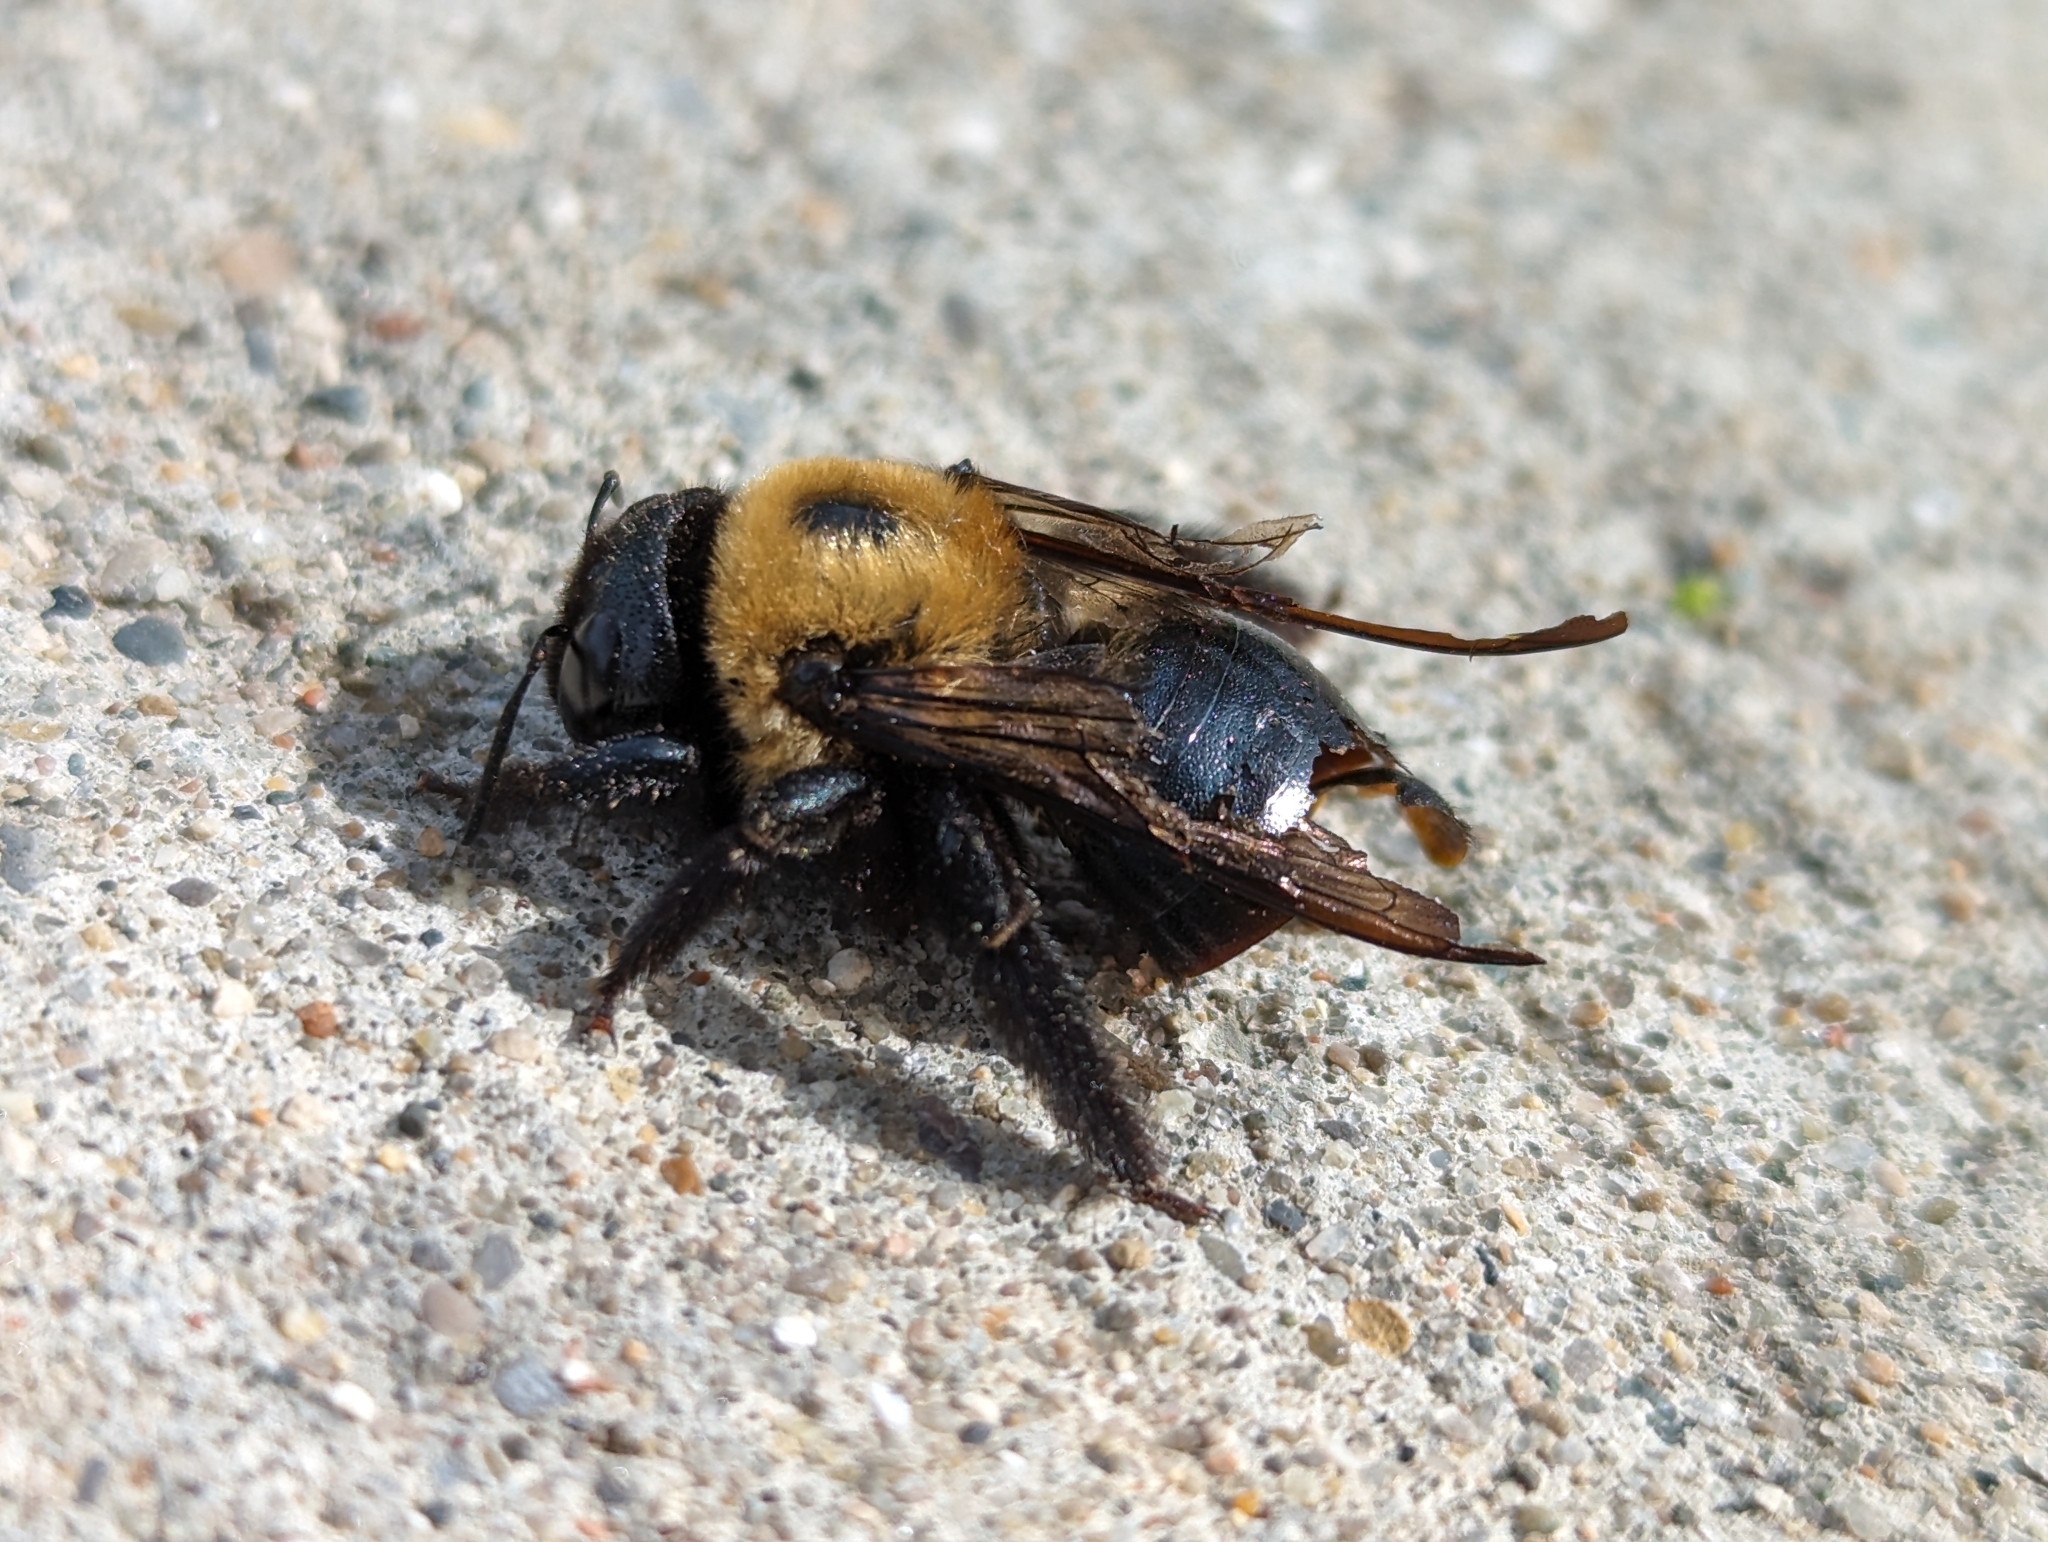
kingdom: Animalia
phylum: Arthropoda
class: Insecta
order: Hymenoptera
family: Apidae
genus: Xylocopa
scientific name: Xylocopa virginica
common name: Carpenter bee
